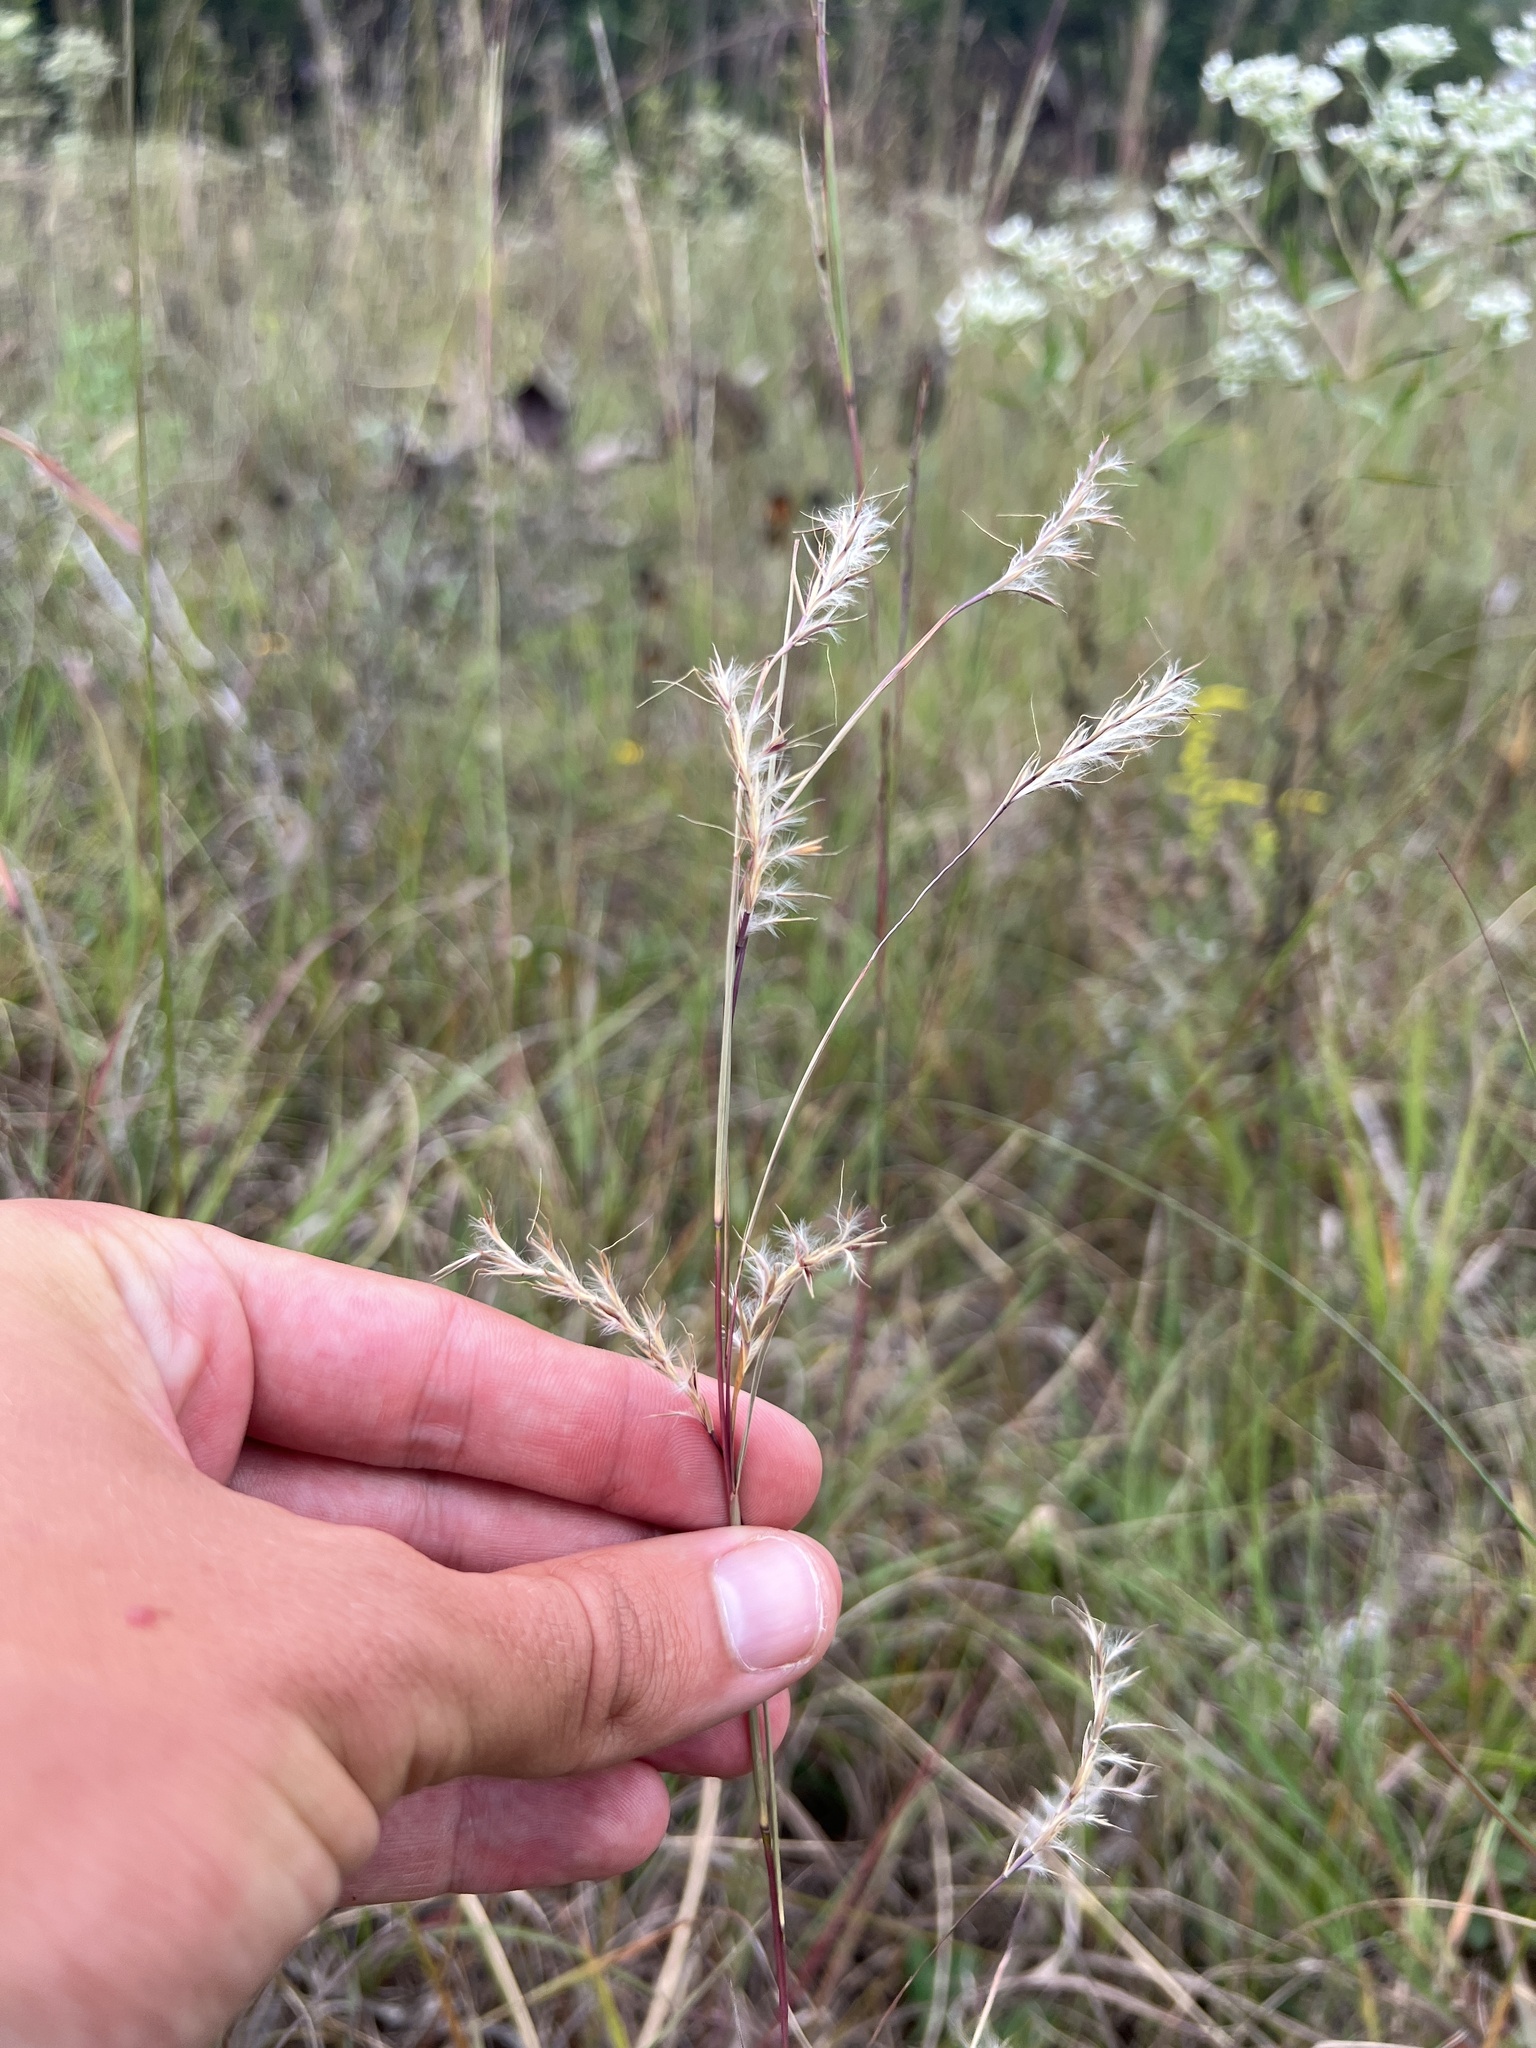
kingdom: Plantae
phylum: Tracheophyta
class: Liliopsida
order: Poales
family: Poaceae
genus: Schizachyrium
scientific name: Schizachyrium scoparium
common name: Little bluestem
